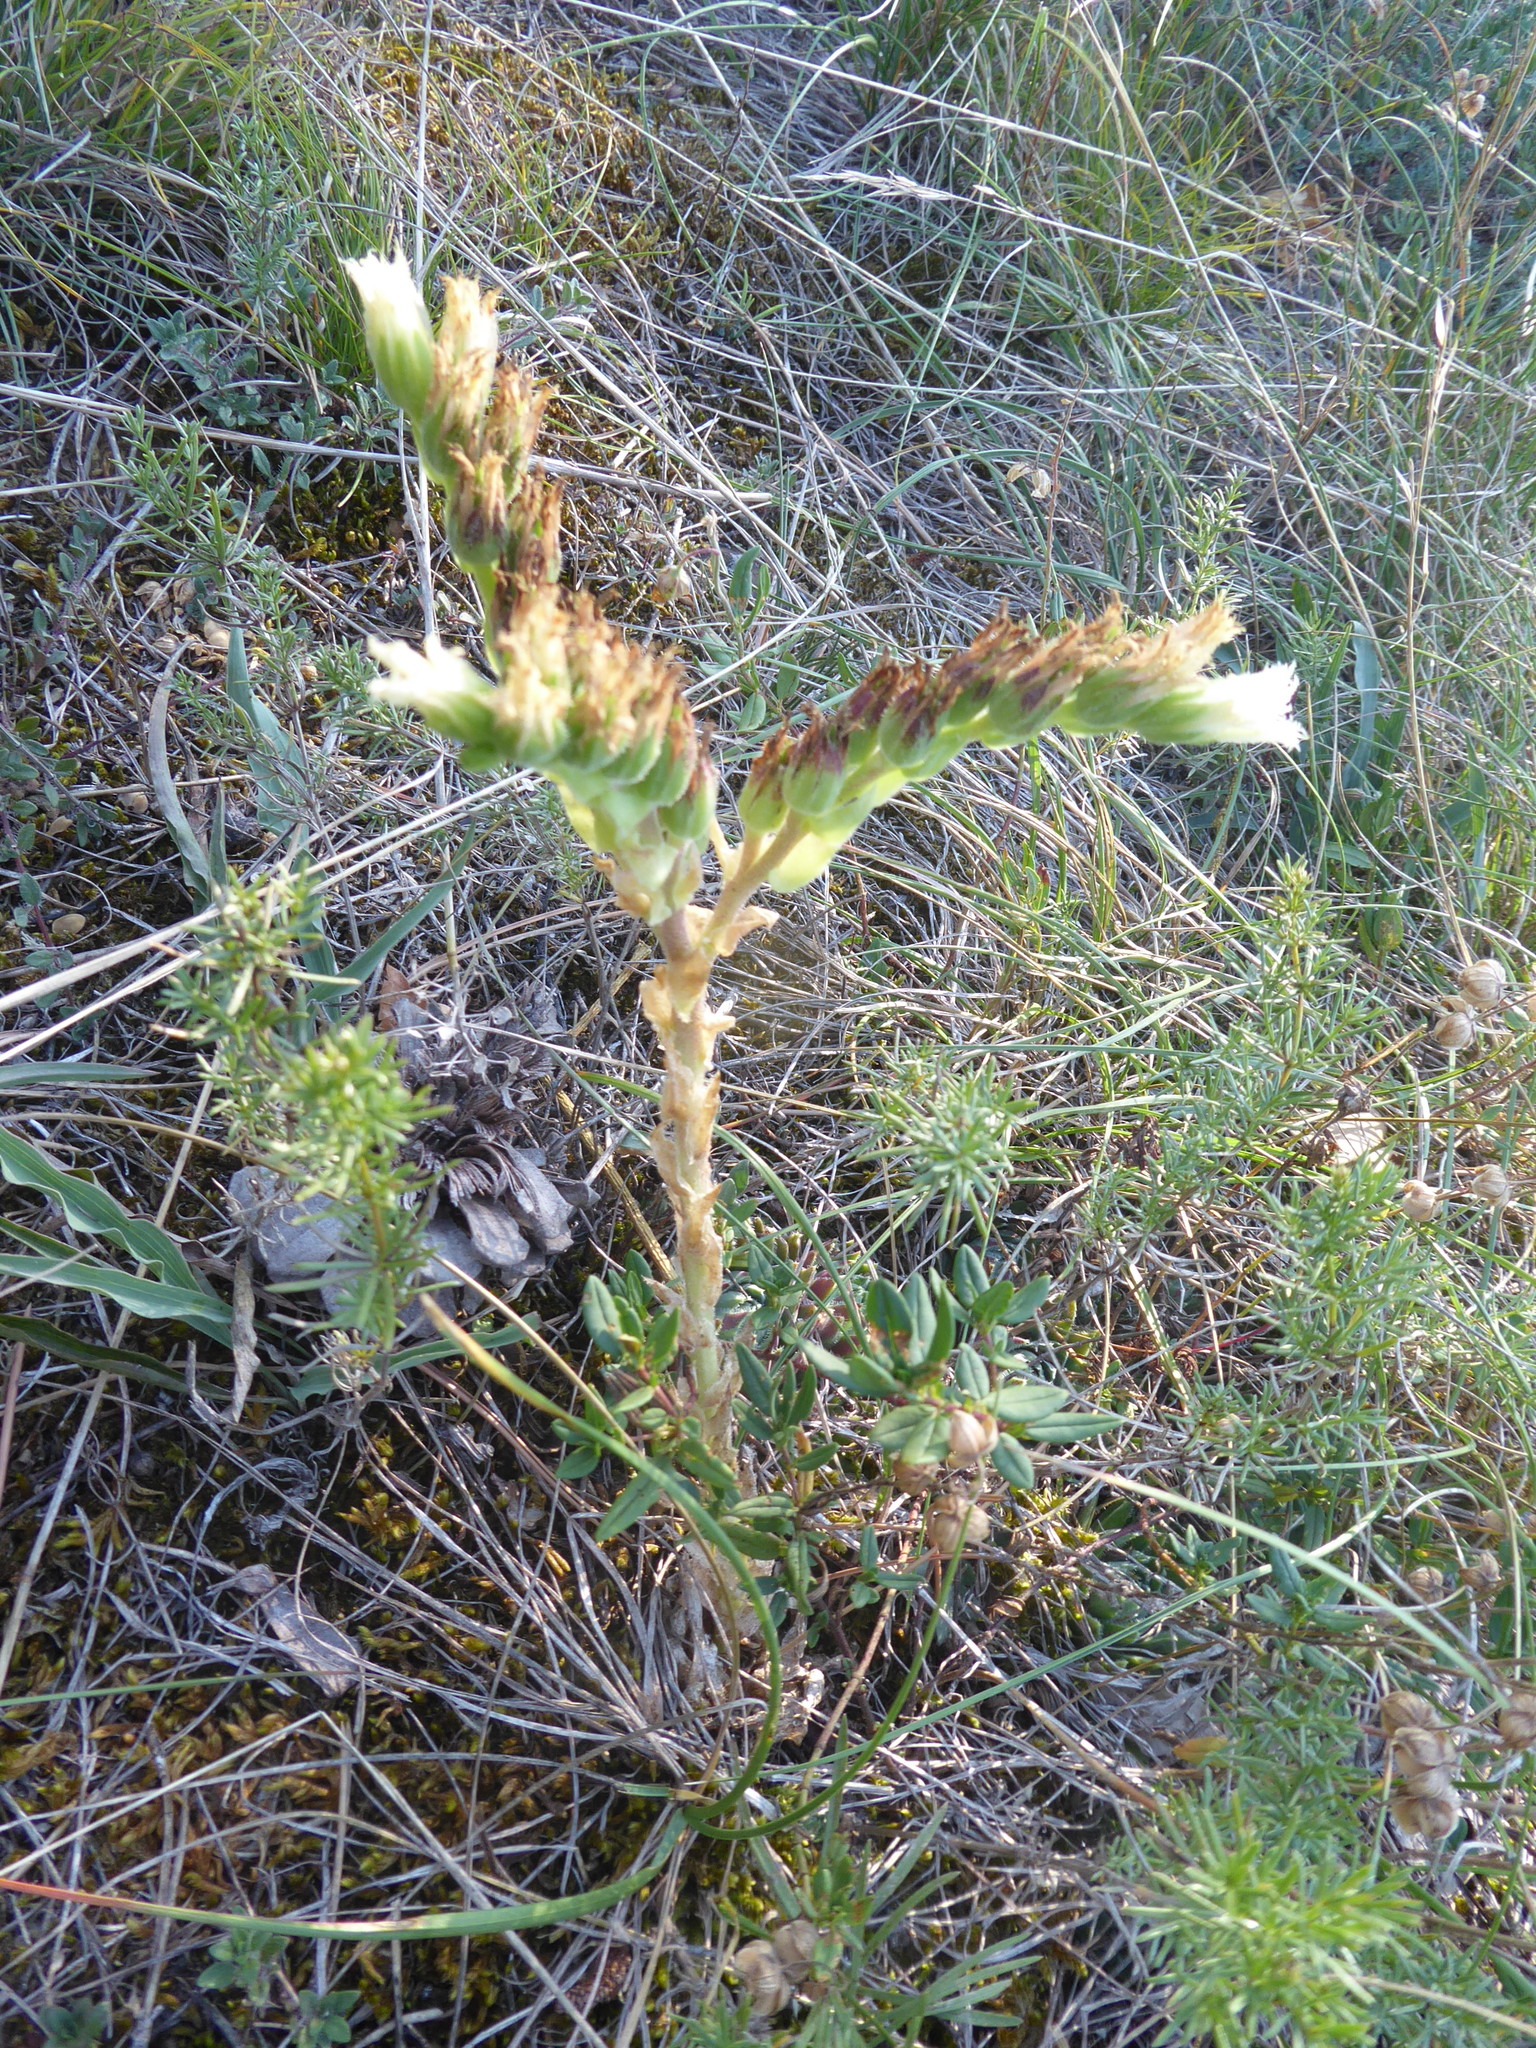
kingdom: Plantae
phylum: Tracheophyta
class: Magnoliopsida
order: Saxifragales
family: Crassulaceae
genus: Sempervivum
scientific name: Sempervivum globiferum
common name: Rolling hen-and-chicks
